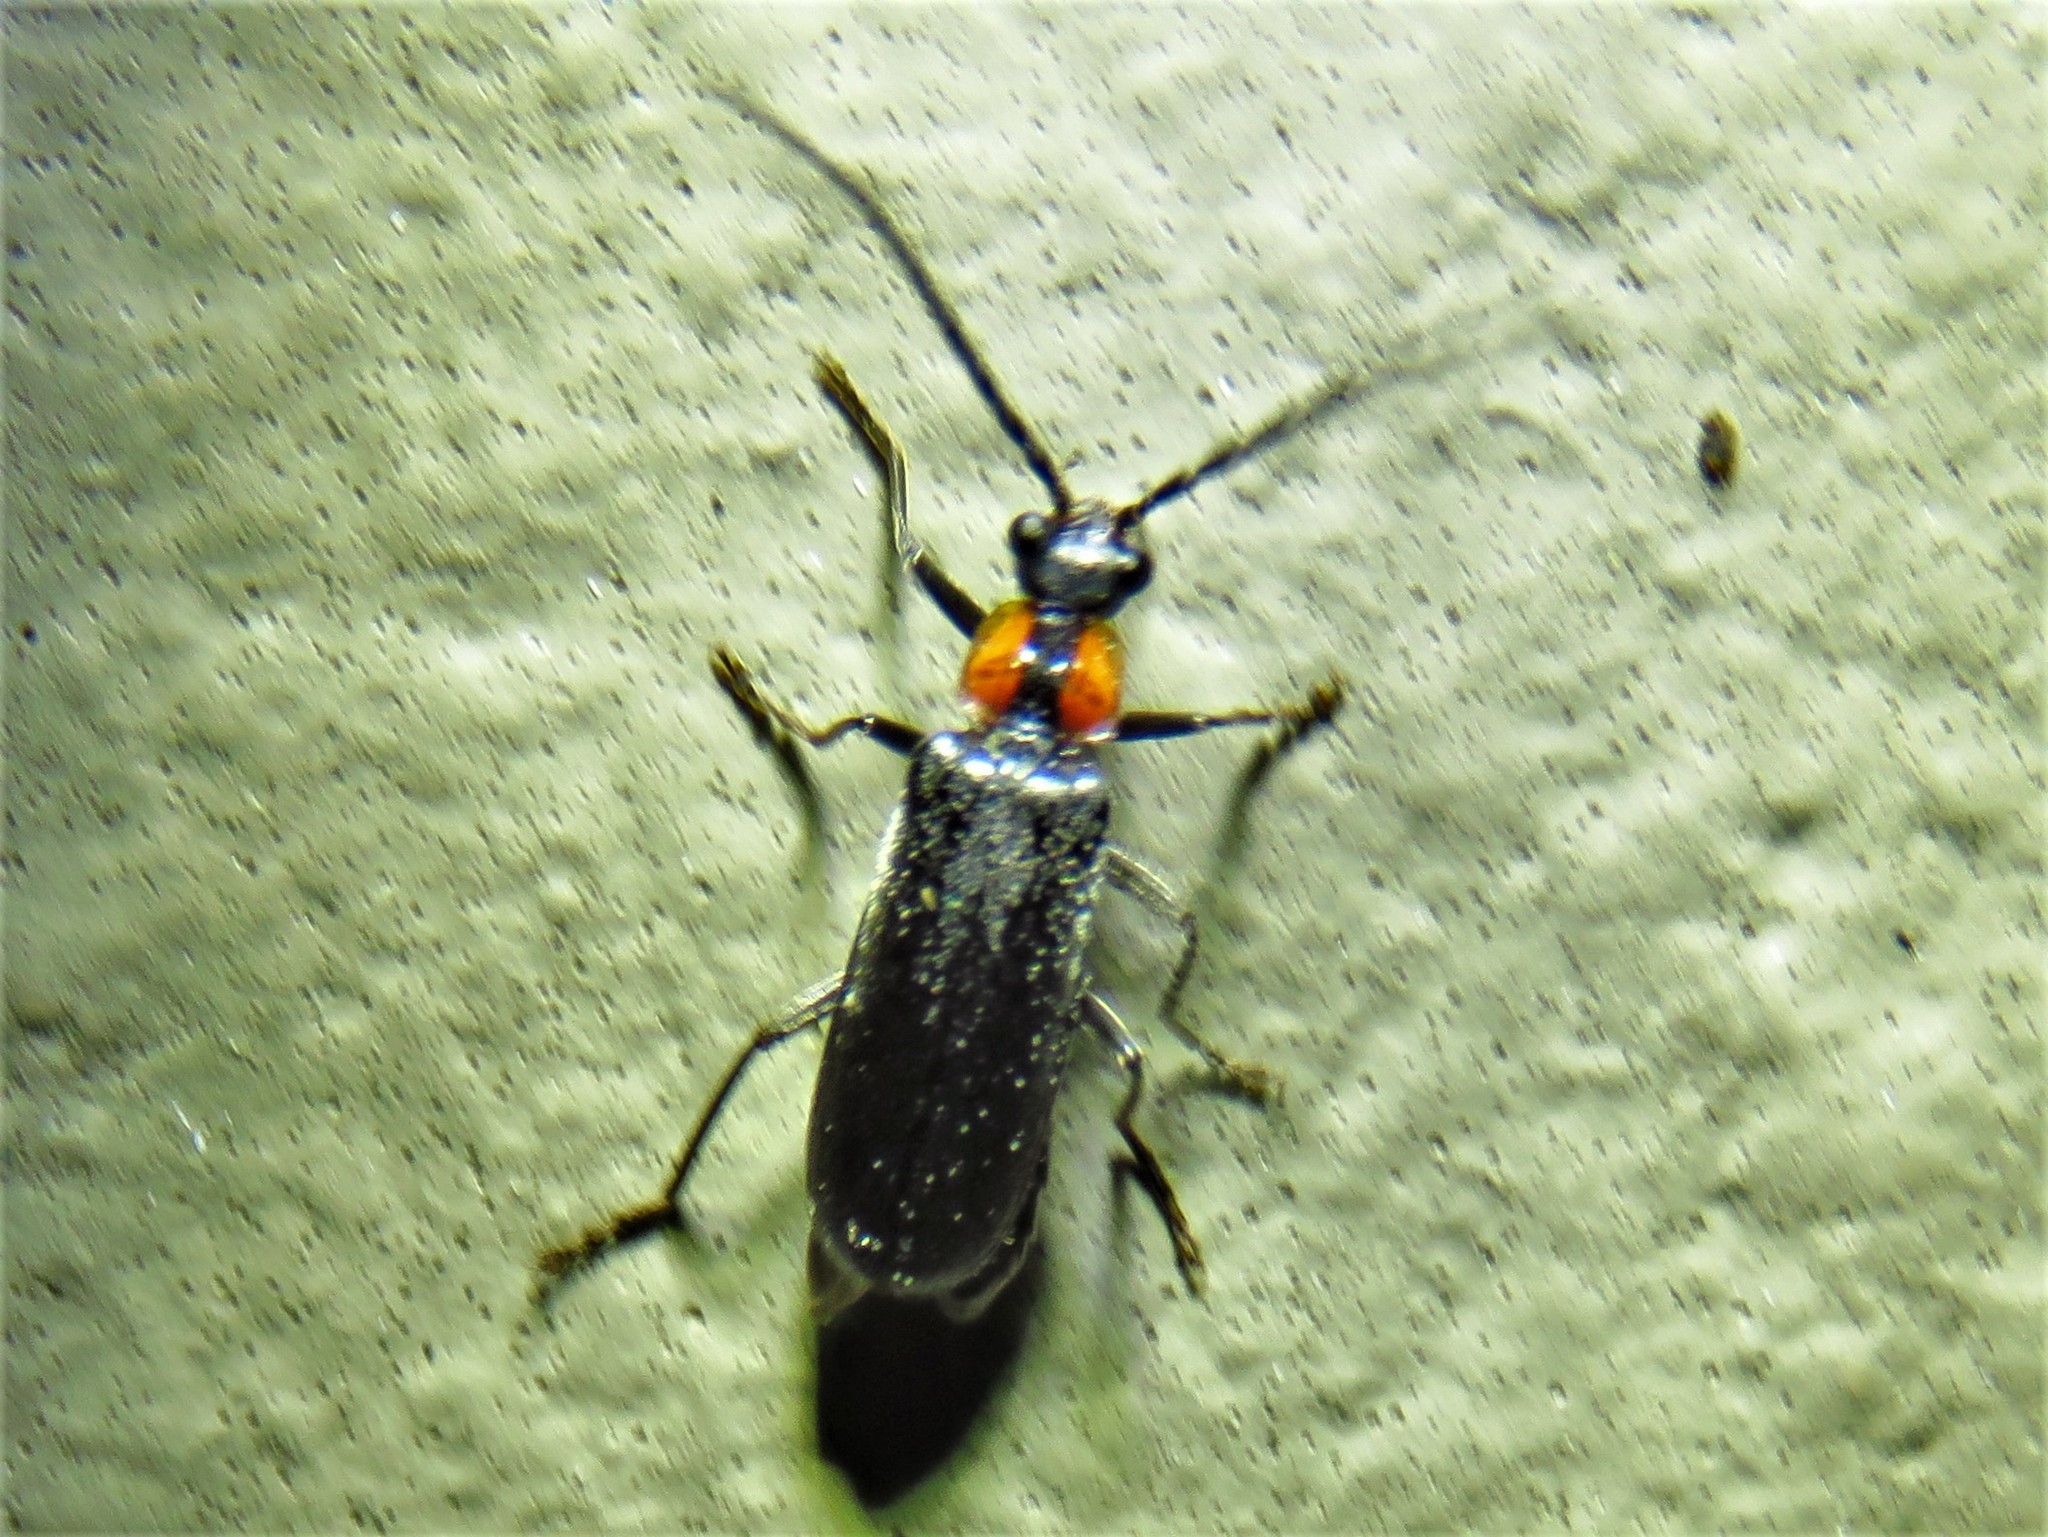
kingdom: Animalia
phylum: Arthropoda
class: Insecta
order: Coleoptera
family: Cantharidae
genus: Rhagonycha
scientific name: Rhagonycha lineola
